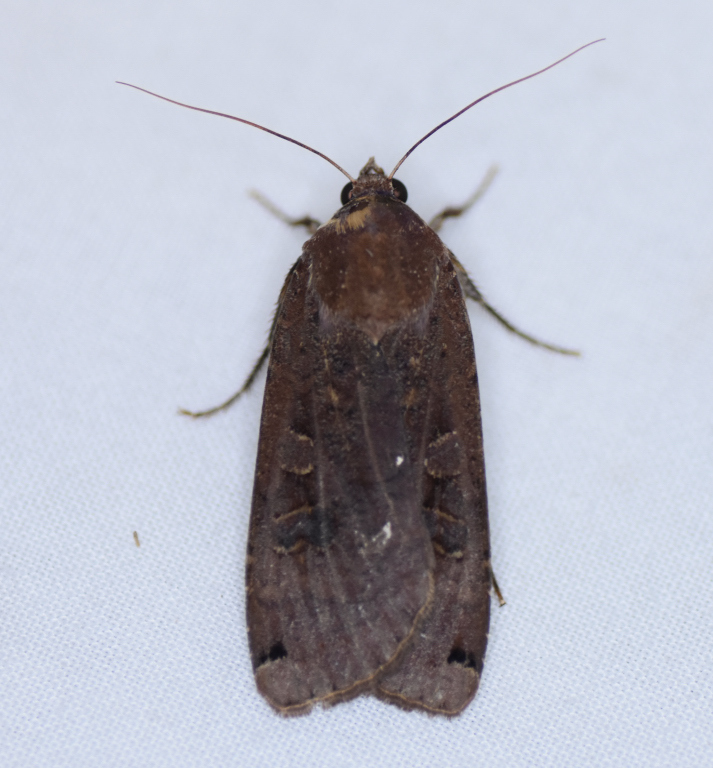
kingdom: Animalia
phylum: Arthropoda
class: Insecta
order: Lepidoptera
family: Noctuidae
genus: Noctua
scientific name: Noctua pronuba
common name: Large yellow underwing
